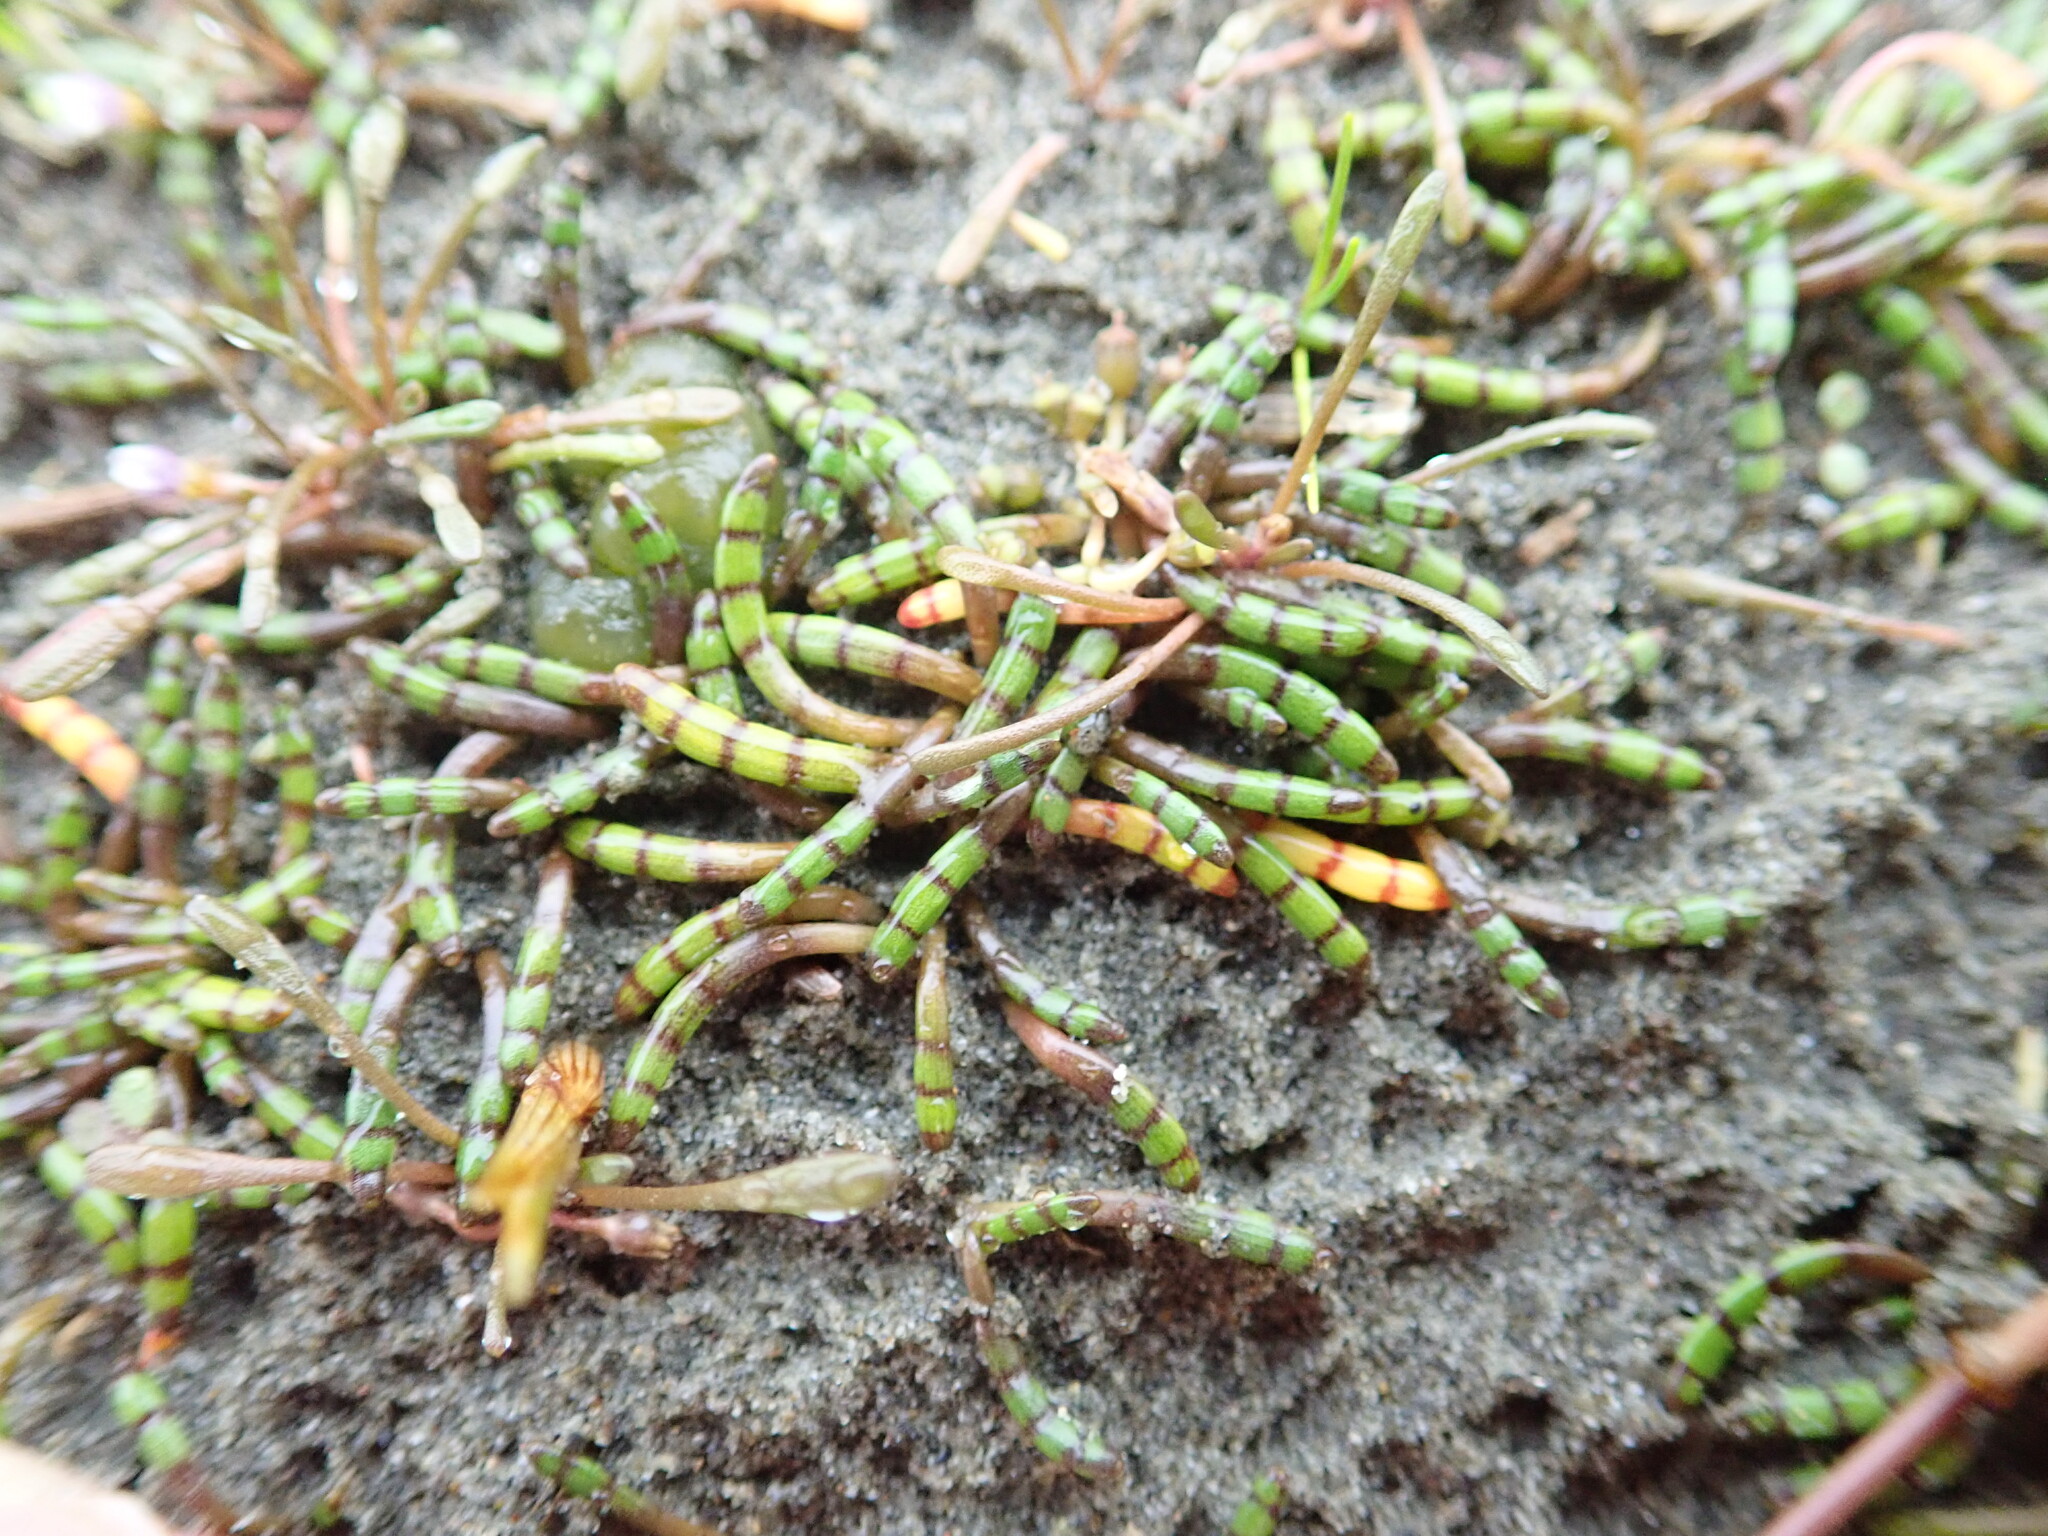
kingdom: Plantae
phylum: Tracheophyta
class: Magnoliopsida
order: Apiales
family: Apiaceae
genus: Lilaeopsis
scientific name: Lilaeopsis novae-zelandiae
